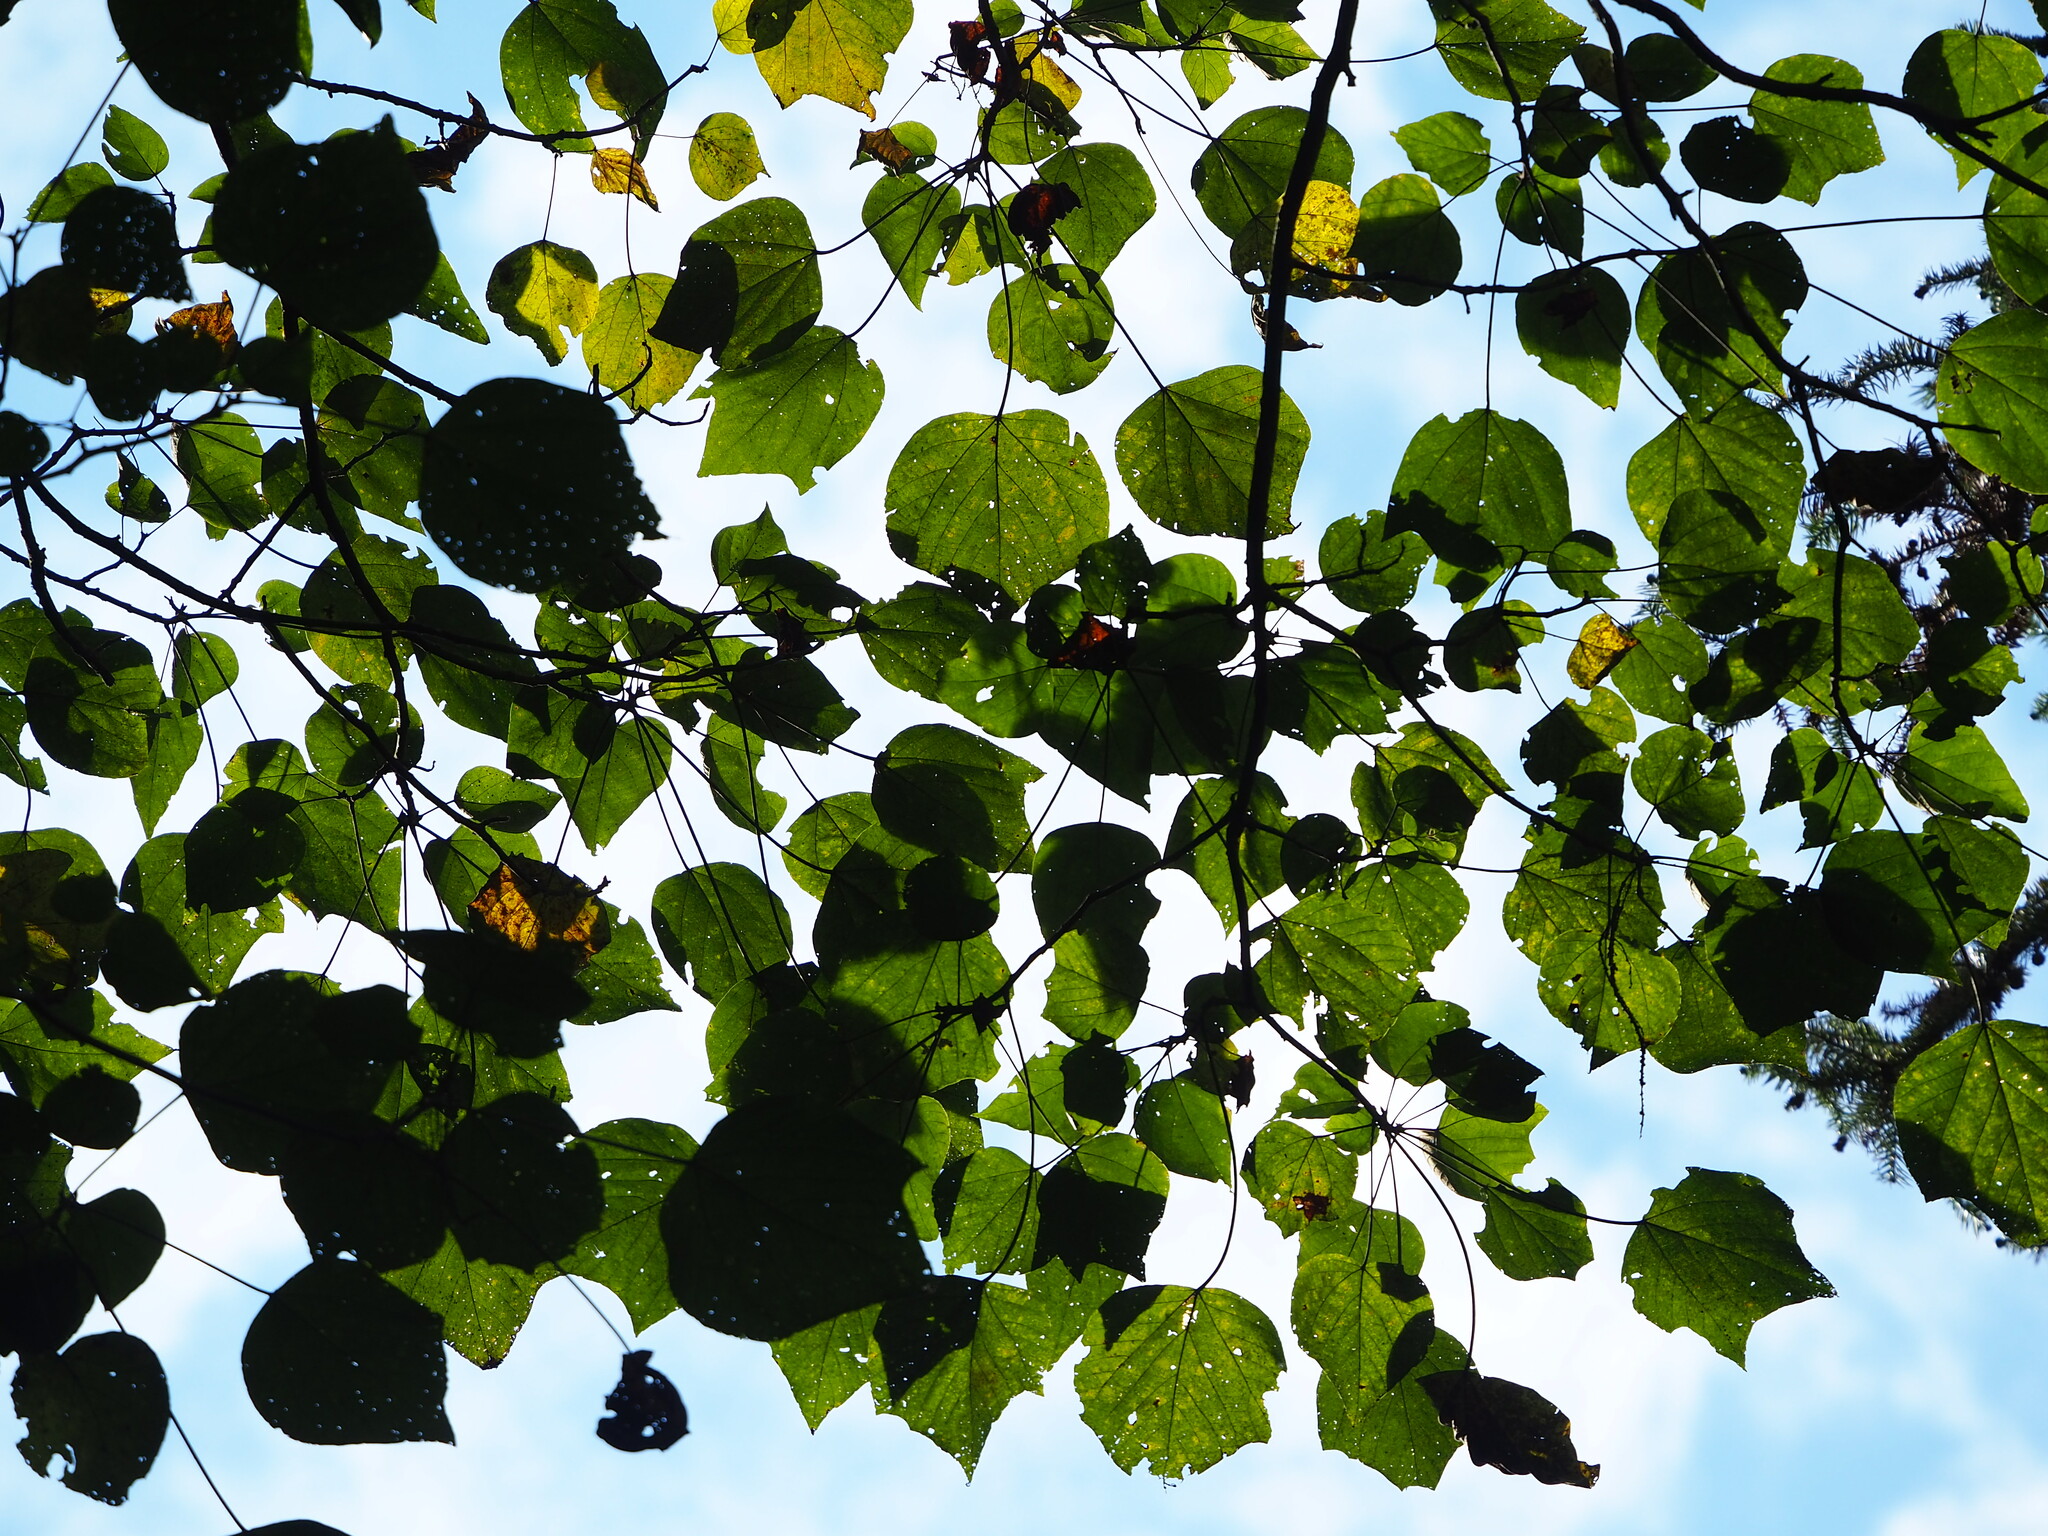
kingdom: Plantae
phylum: Tracheophyta
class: Magnoliopsida
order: Malpighiales
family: Euphorbiaceae
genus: Mallotus
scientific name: Mallotus japonicus
